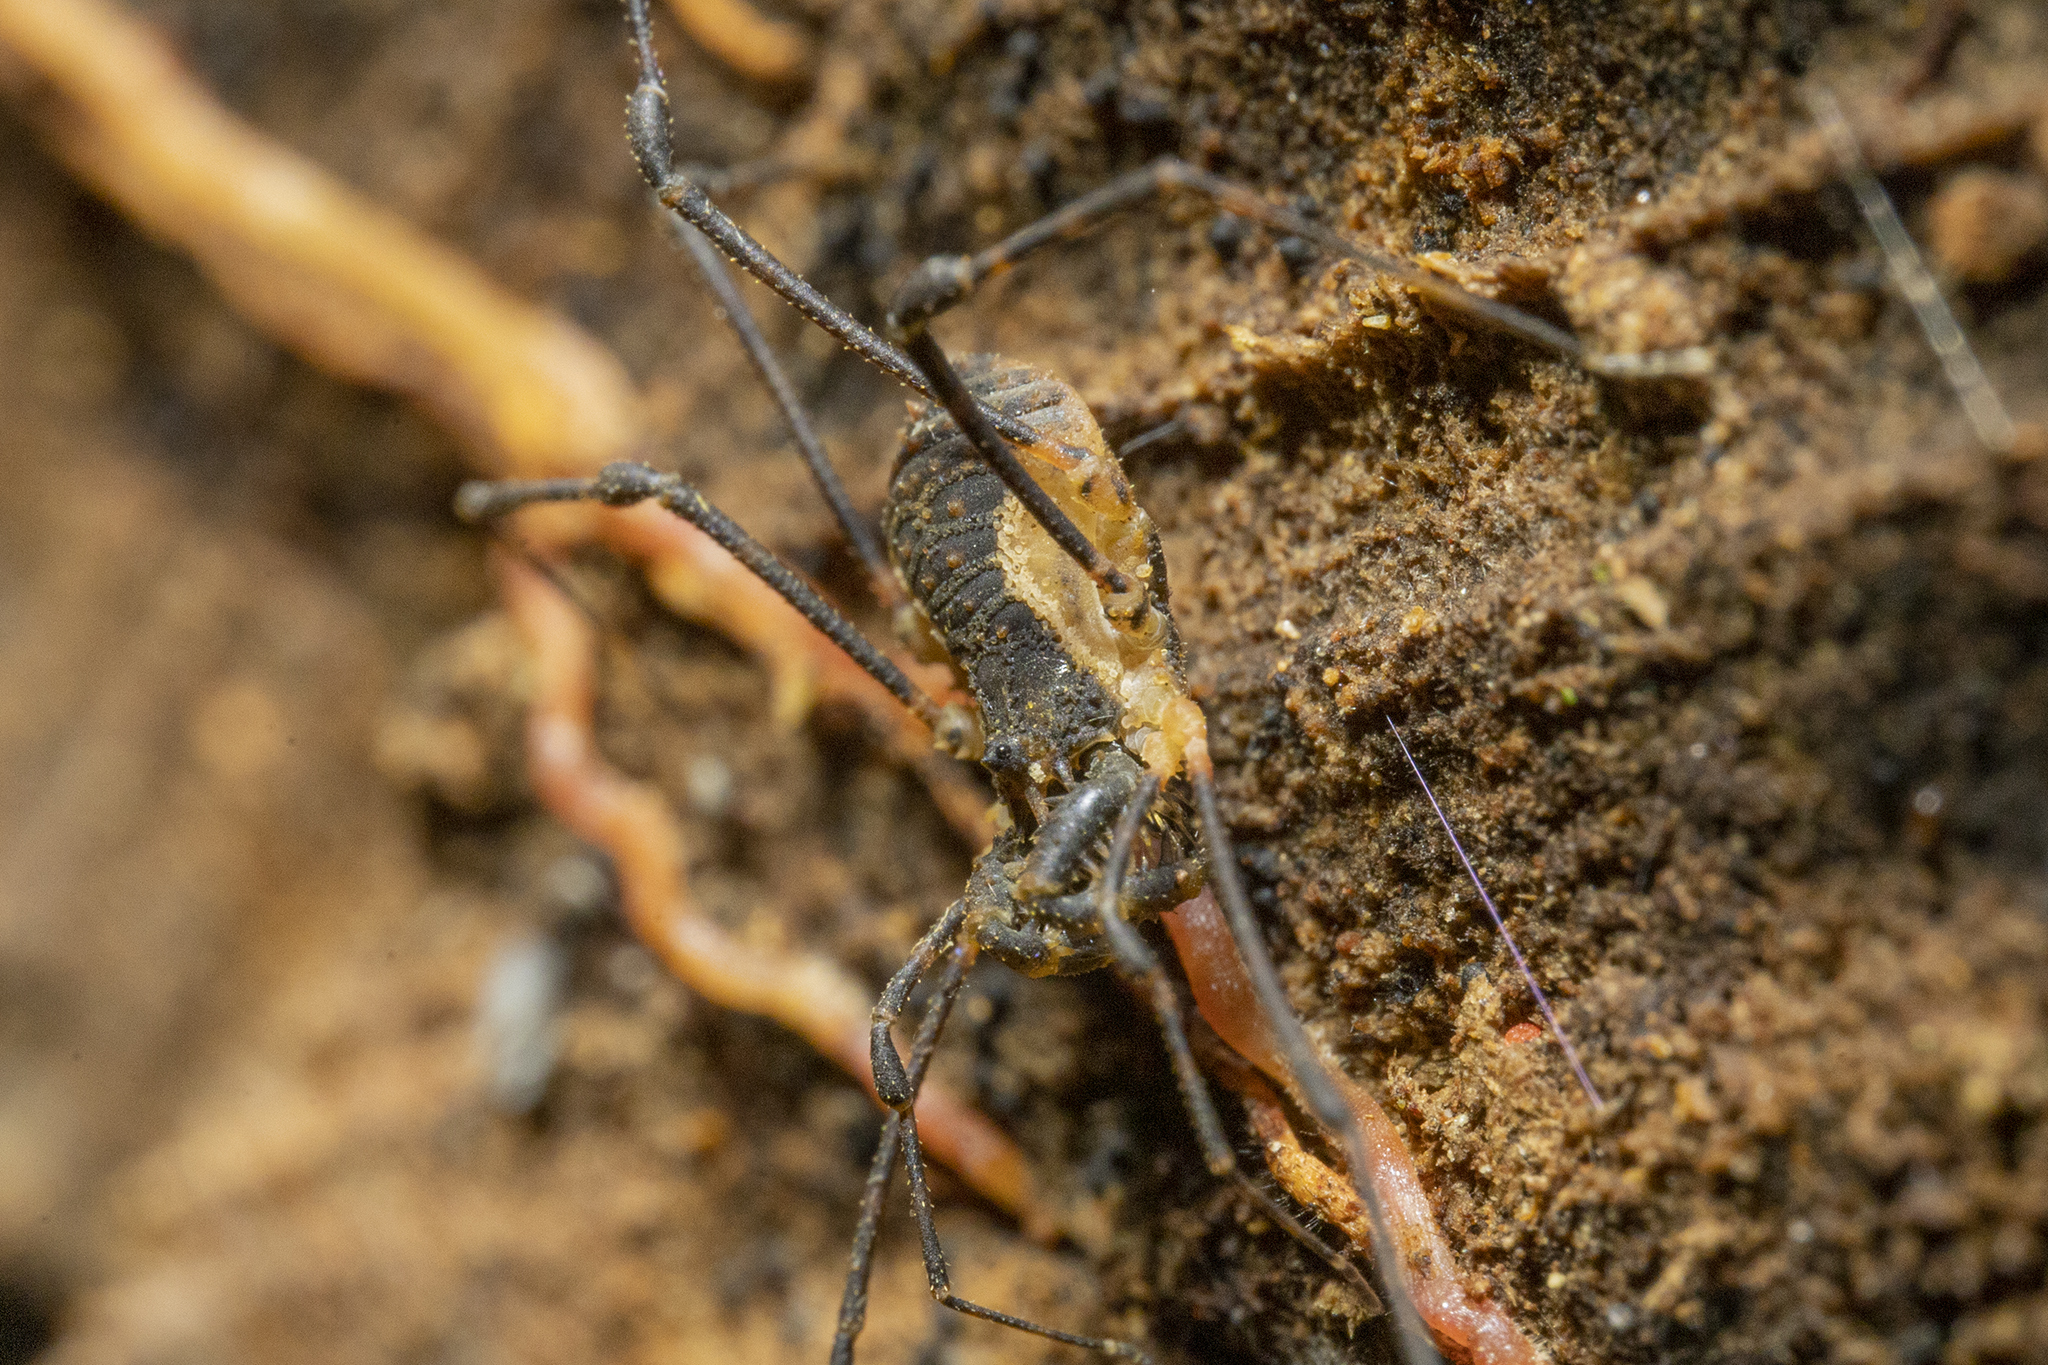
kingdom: Animalia
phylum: Arthropoda
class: Arachnida
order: Opiliones
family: Triaenonychidae
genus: Algidia
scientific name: Algidia interrupta
